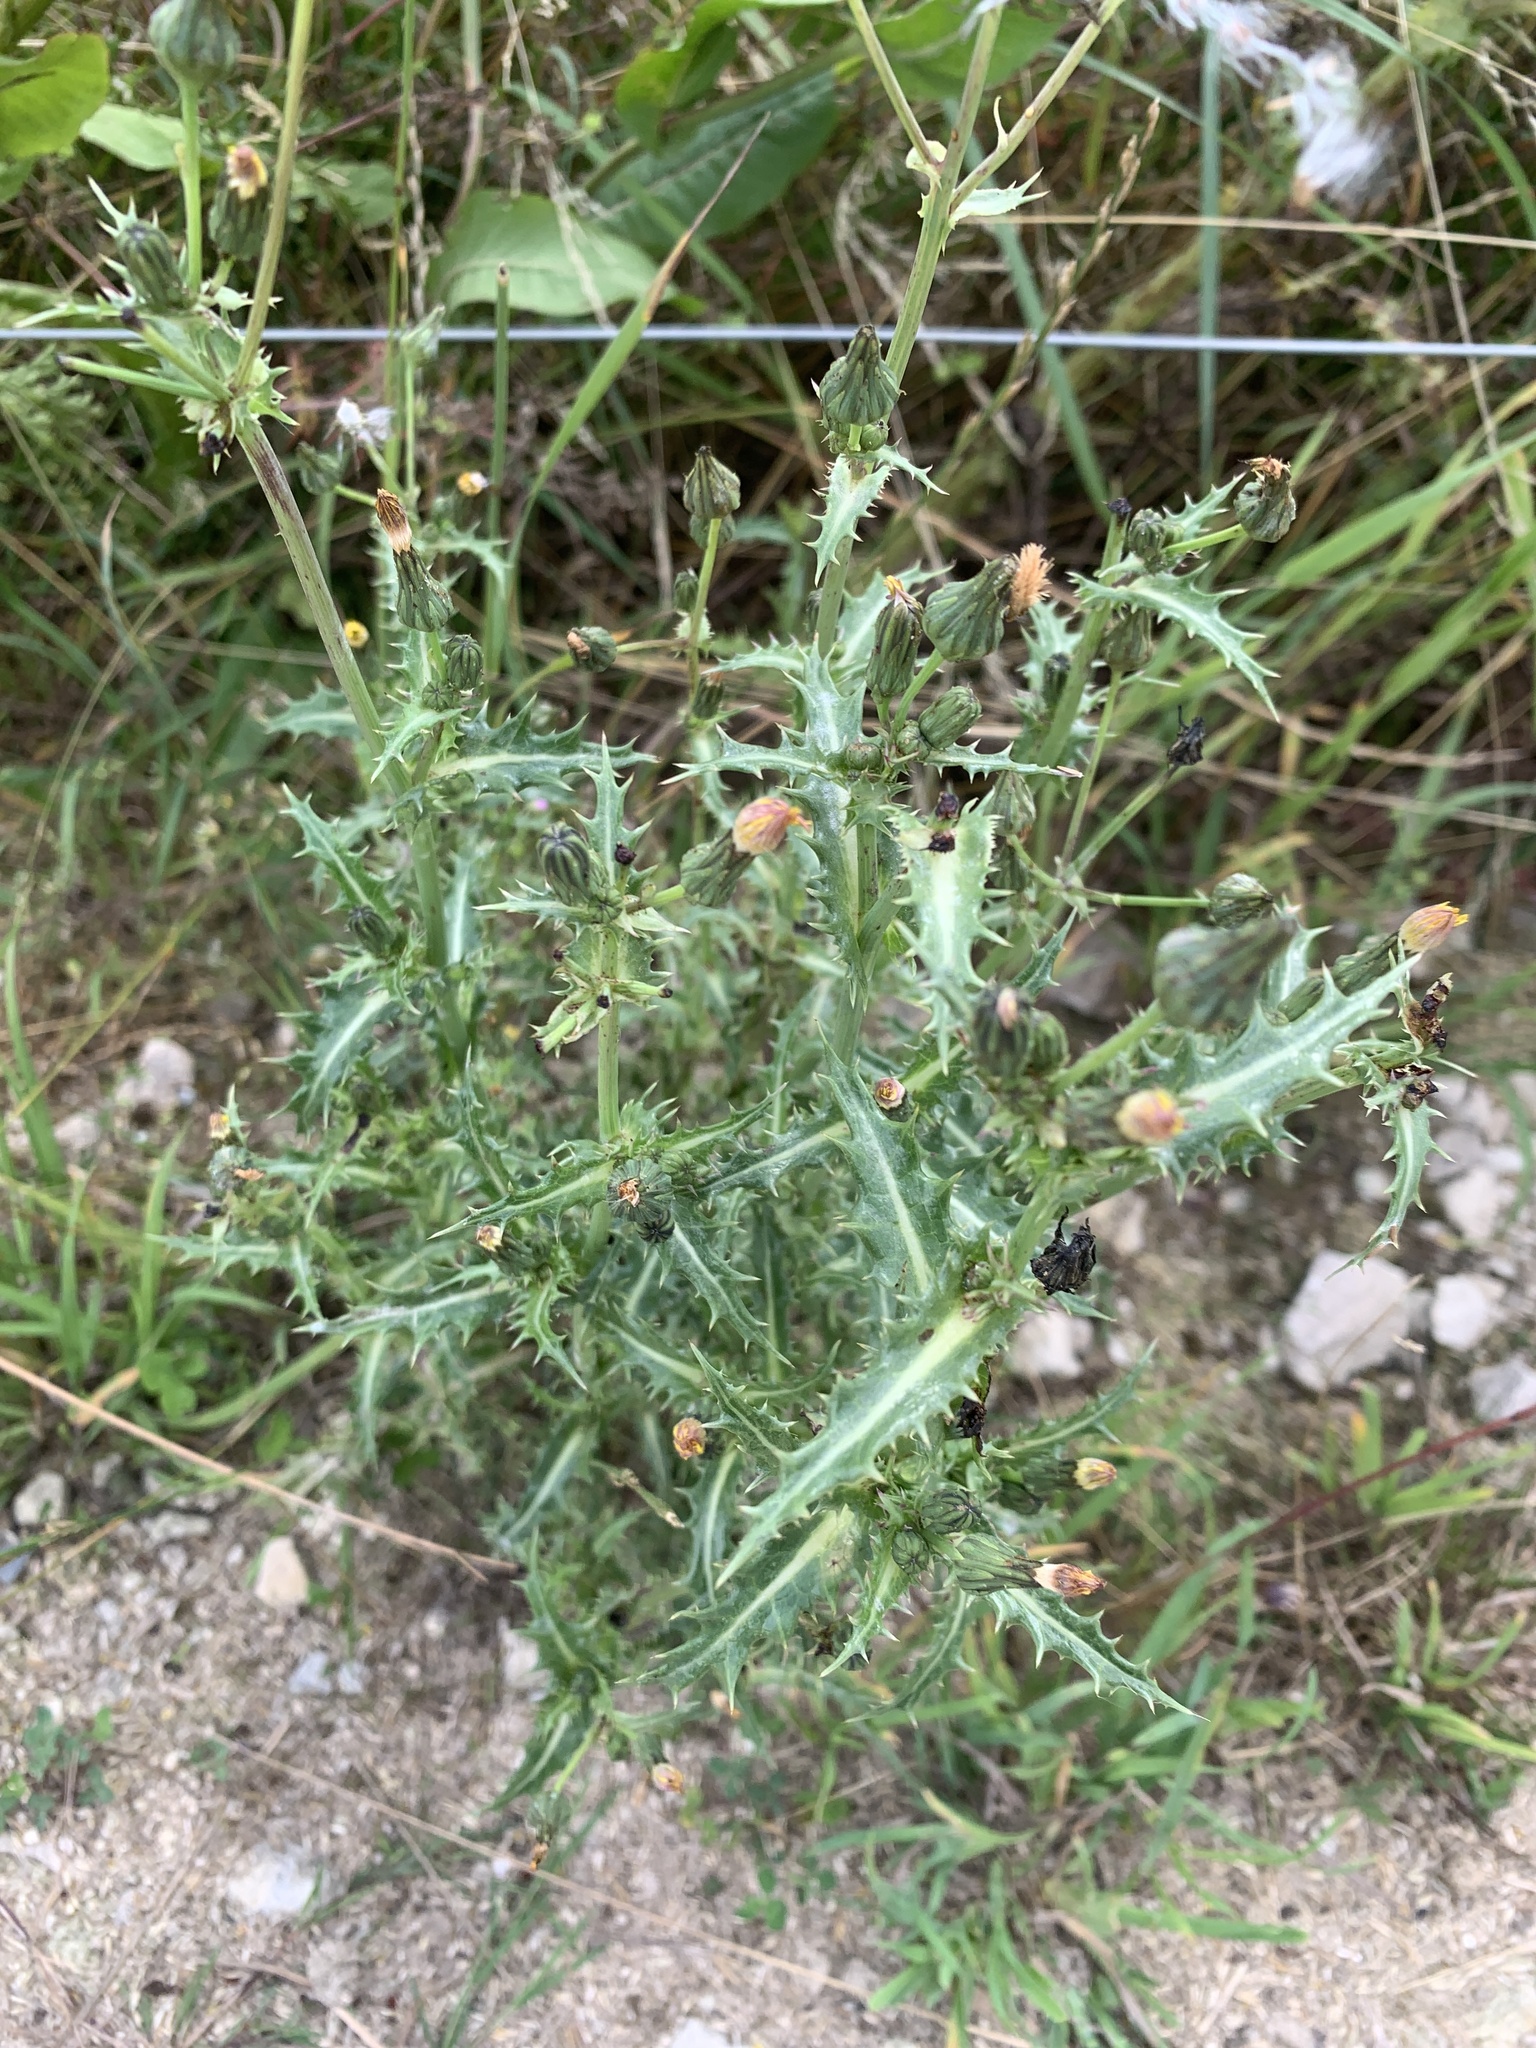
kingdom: Plantae
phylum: Tracheophyta
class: Magnoliopsida
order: Asterales
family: Asteraceae
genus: Sonchus
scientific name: Sonchus asper
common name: Prickly sow-thistle
